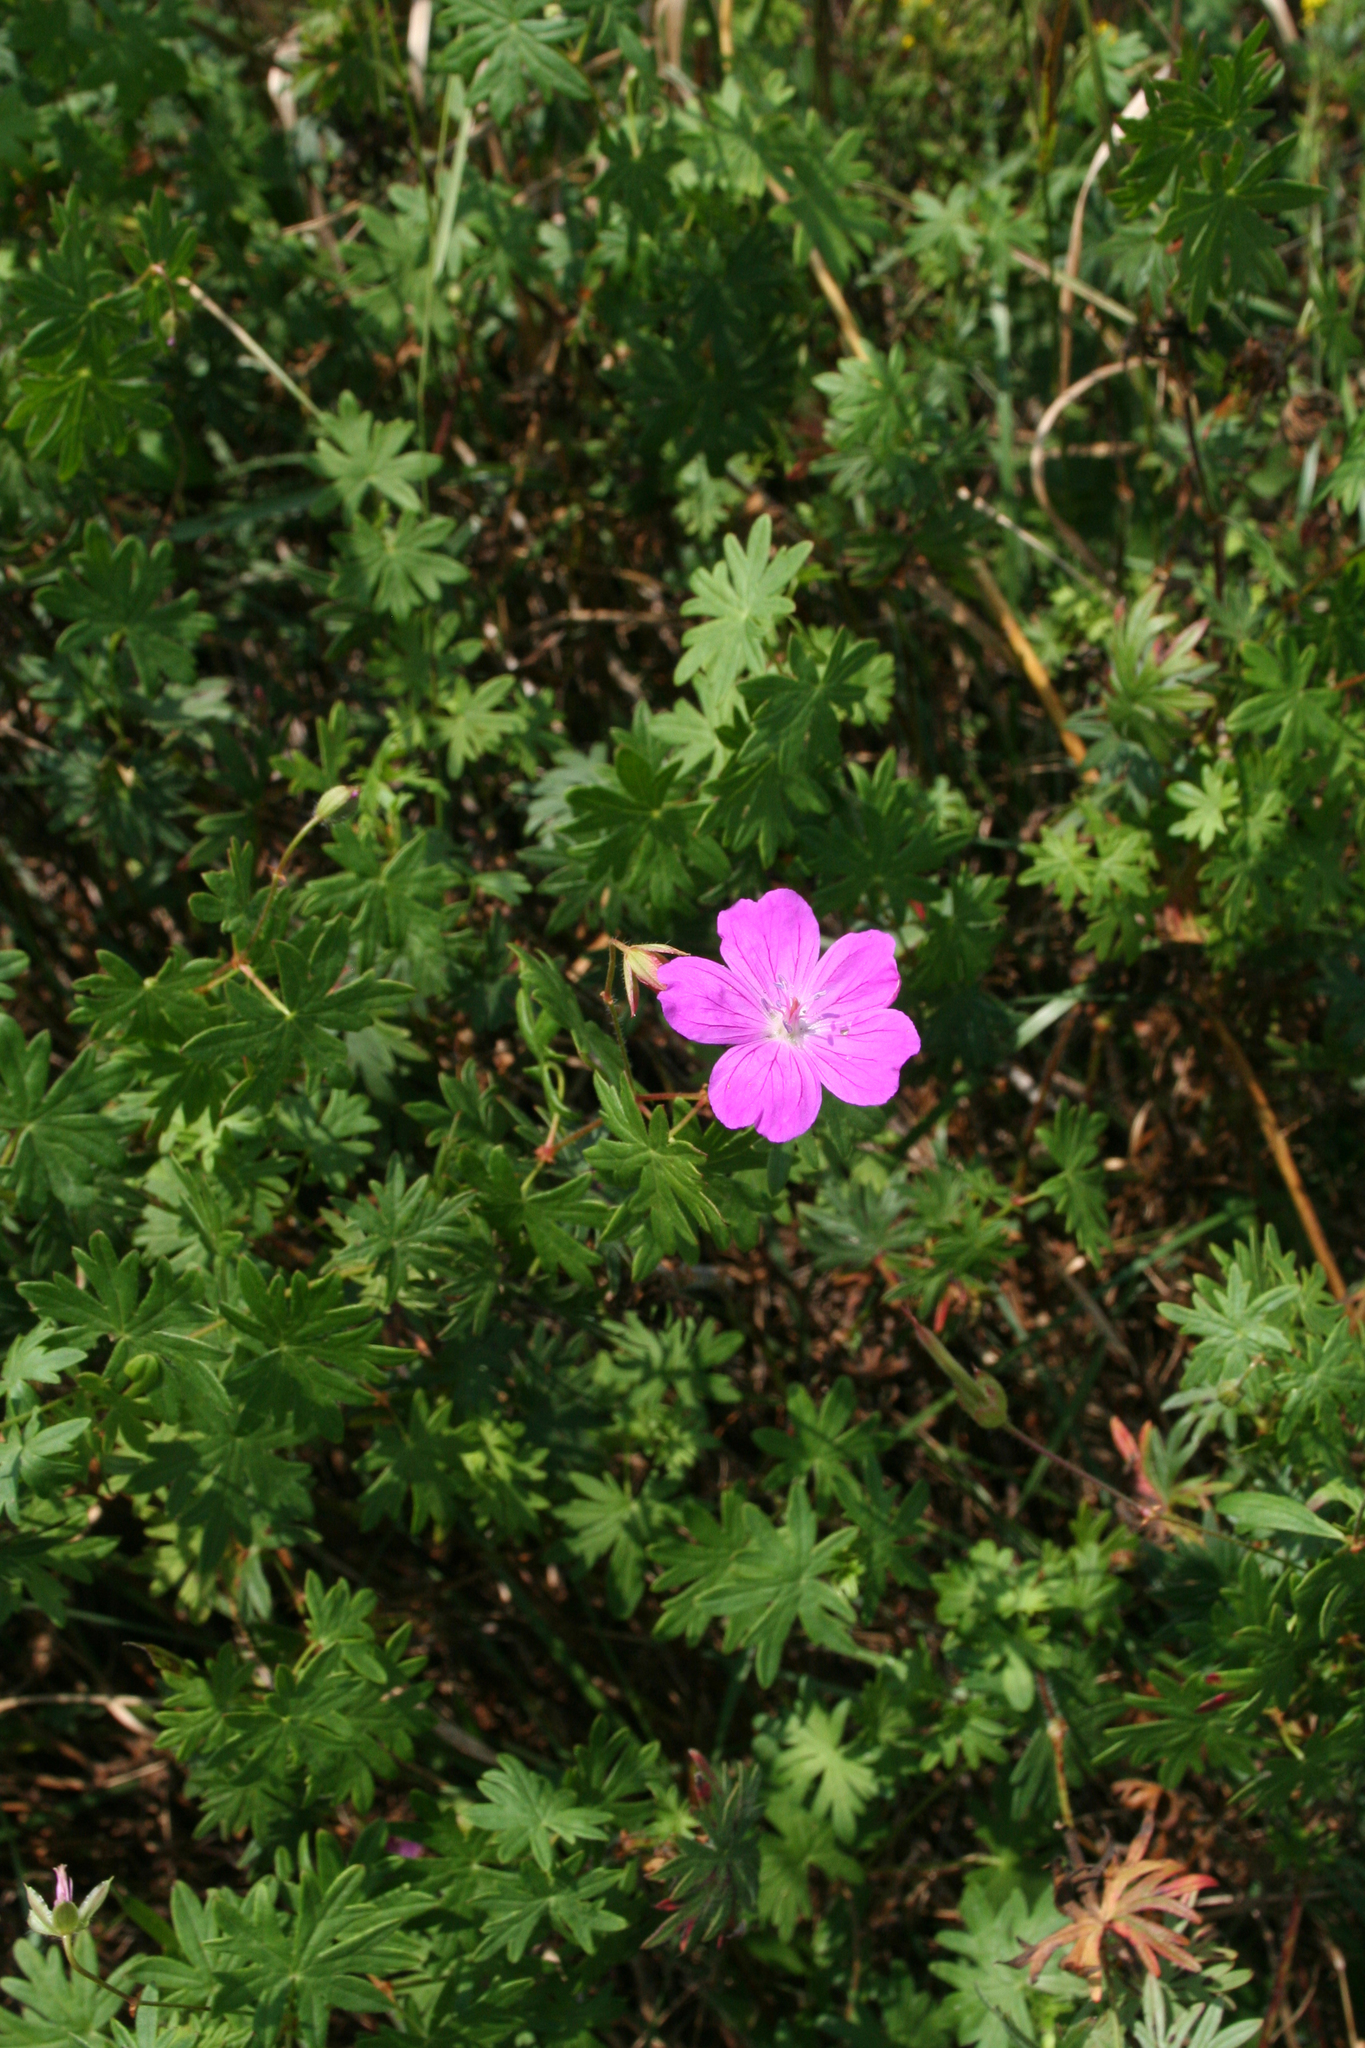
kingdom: Plantae
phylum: Tracheophyta
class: Magnoliopsida
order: Geraniales
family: Geraniaceae
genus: Geranium
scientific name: Geranium sanguineum
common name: Bloody crane's-bill
